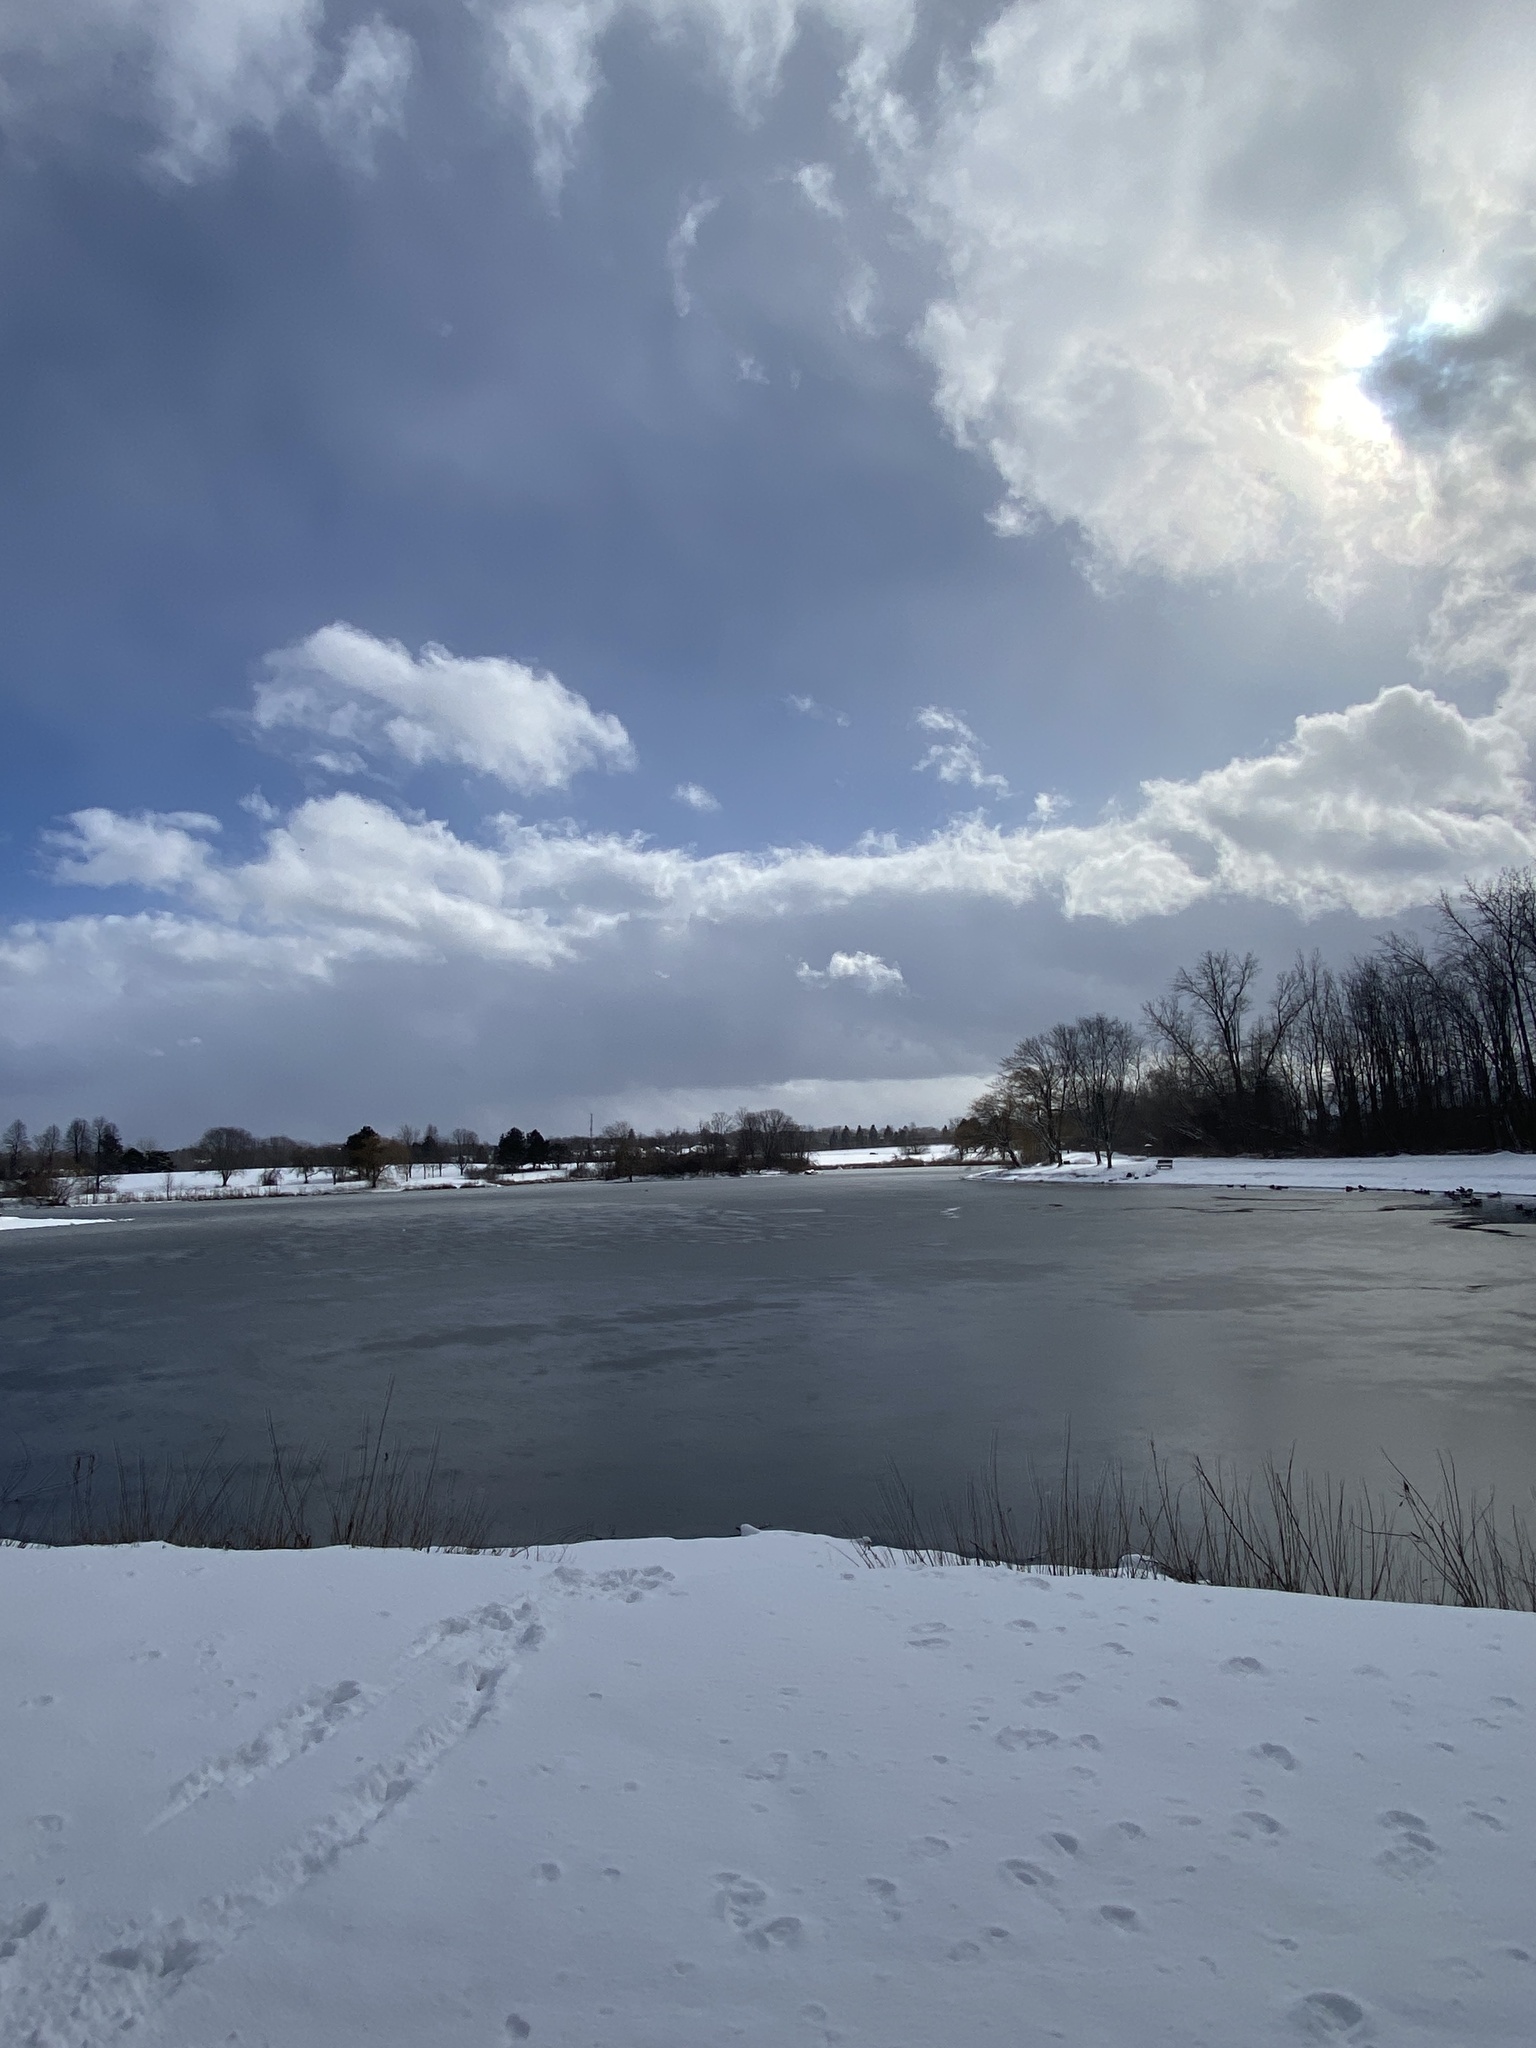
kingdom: Animalia
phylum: Chordata
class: Aves
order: Anseriformes
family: Anatidae
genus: Branta
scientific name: Branta canadensis
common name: Canada goose
